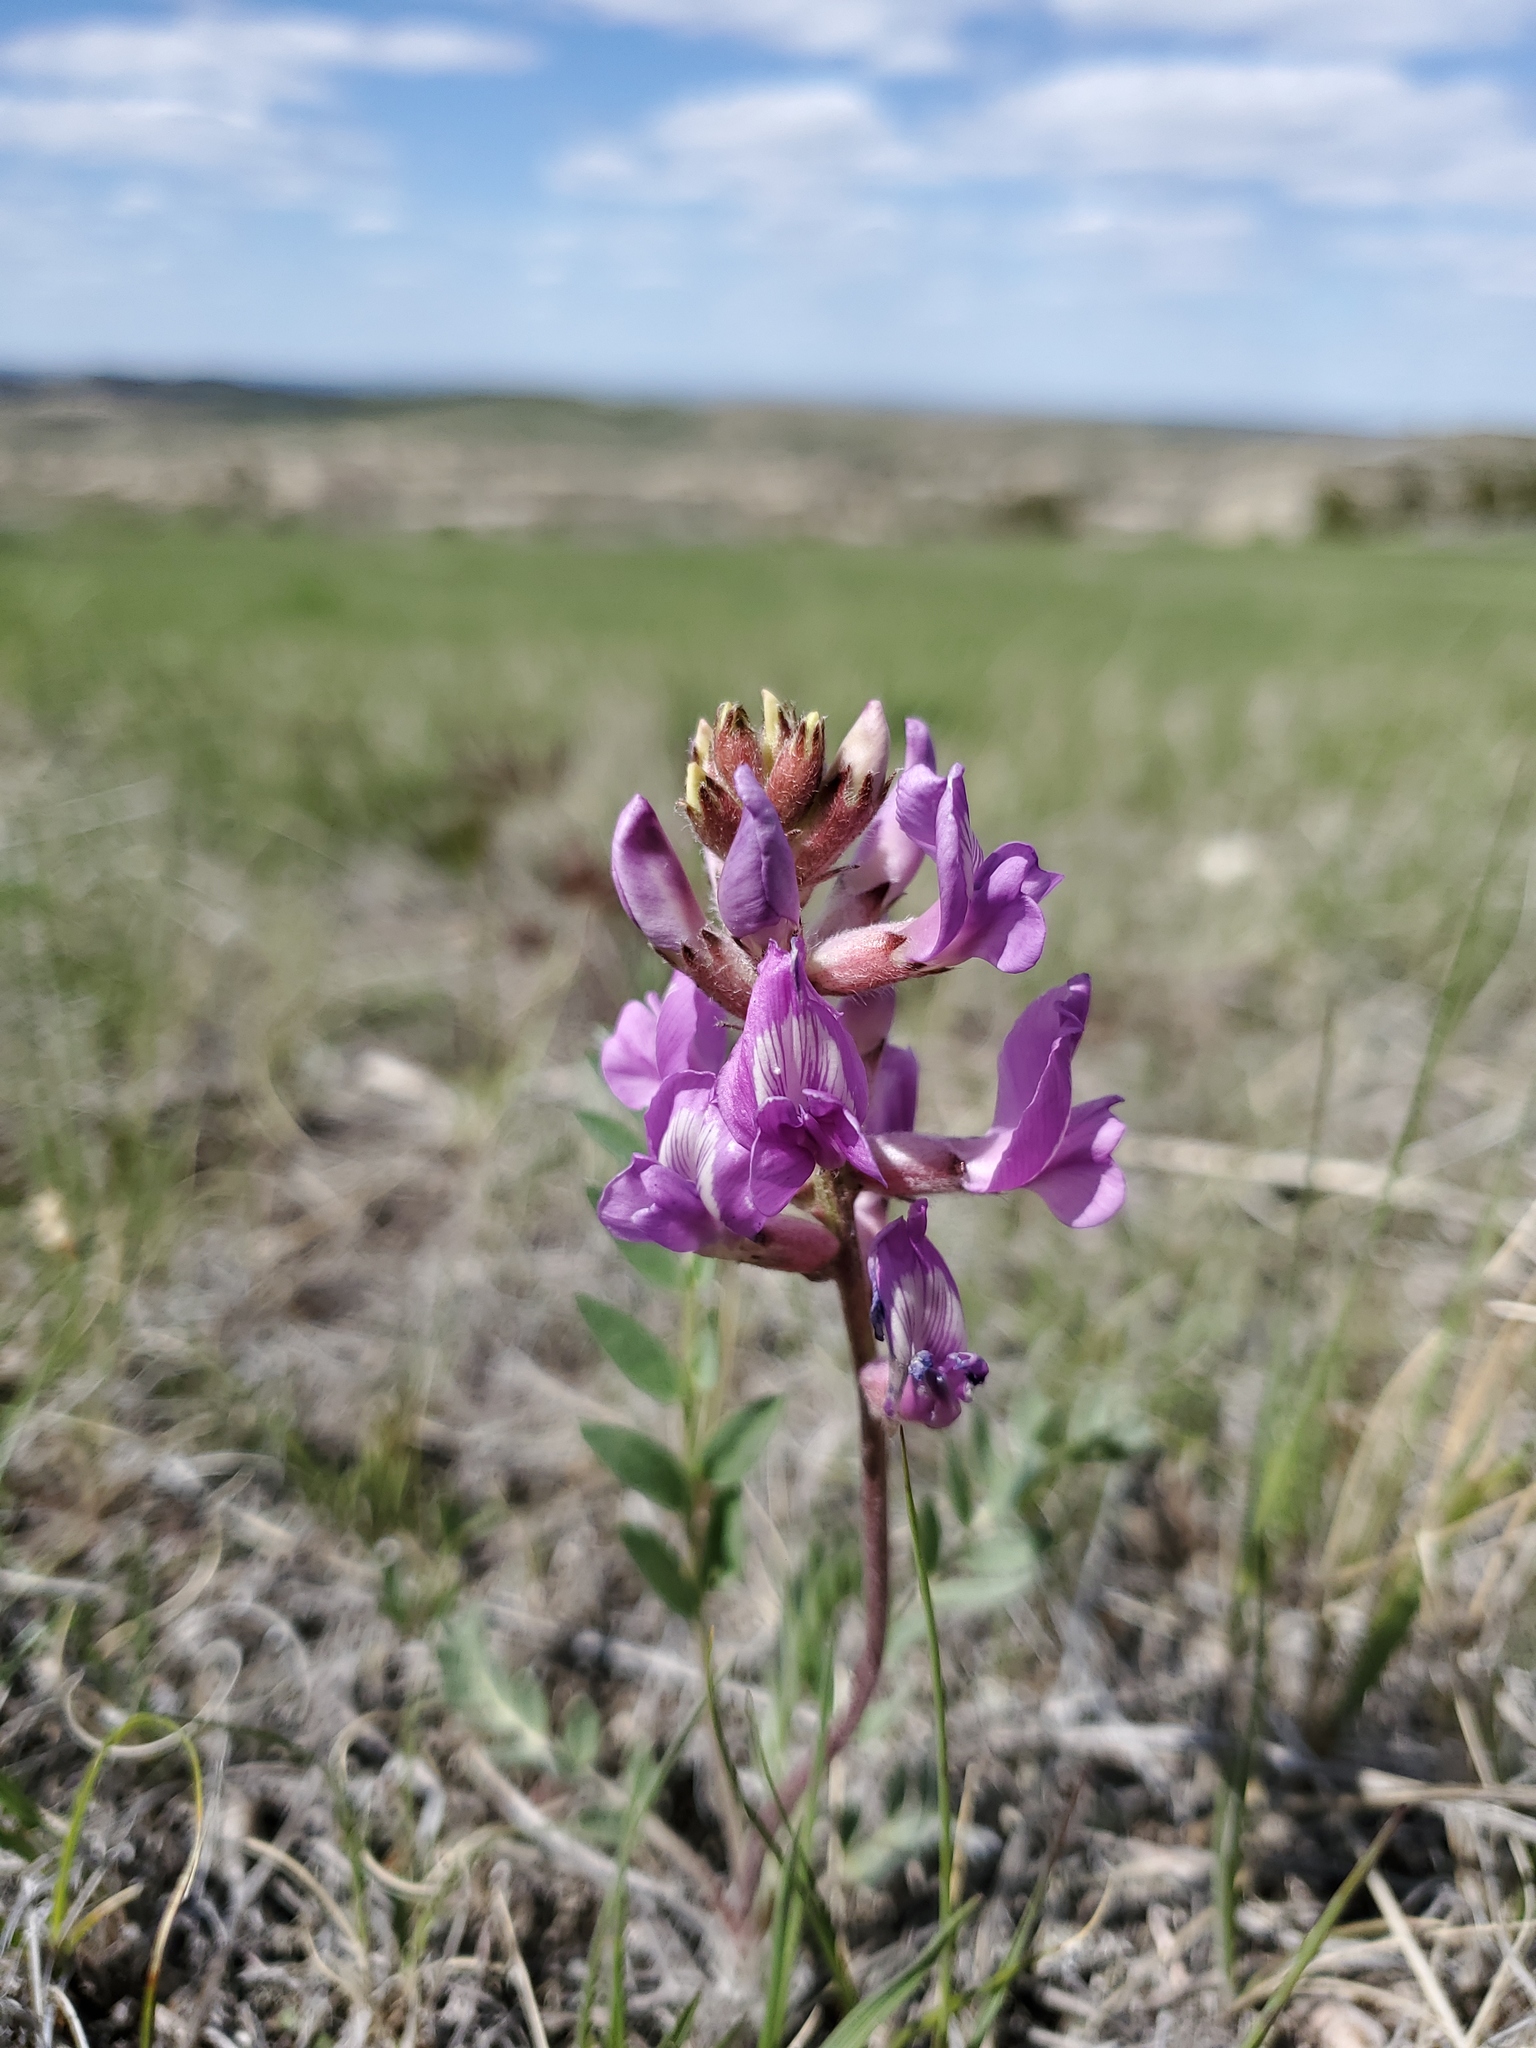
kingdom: Plantae
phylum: Tracheophyta
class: Magnoliopsida
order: Fabales
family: Fabaceae
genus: Oxytropis
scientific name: Oxytropis lambertii
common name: Purple locoweed
